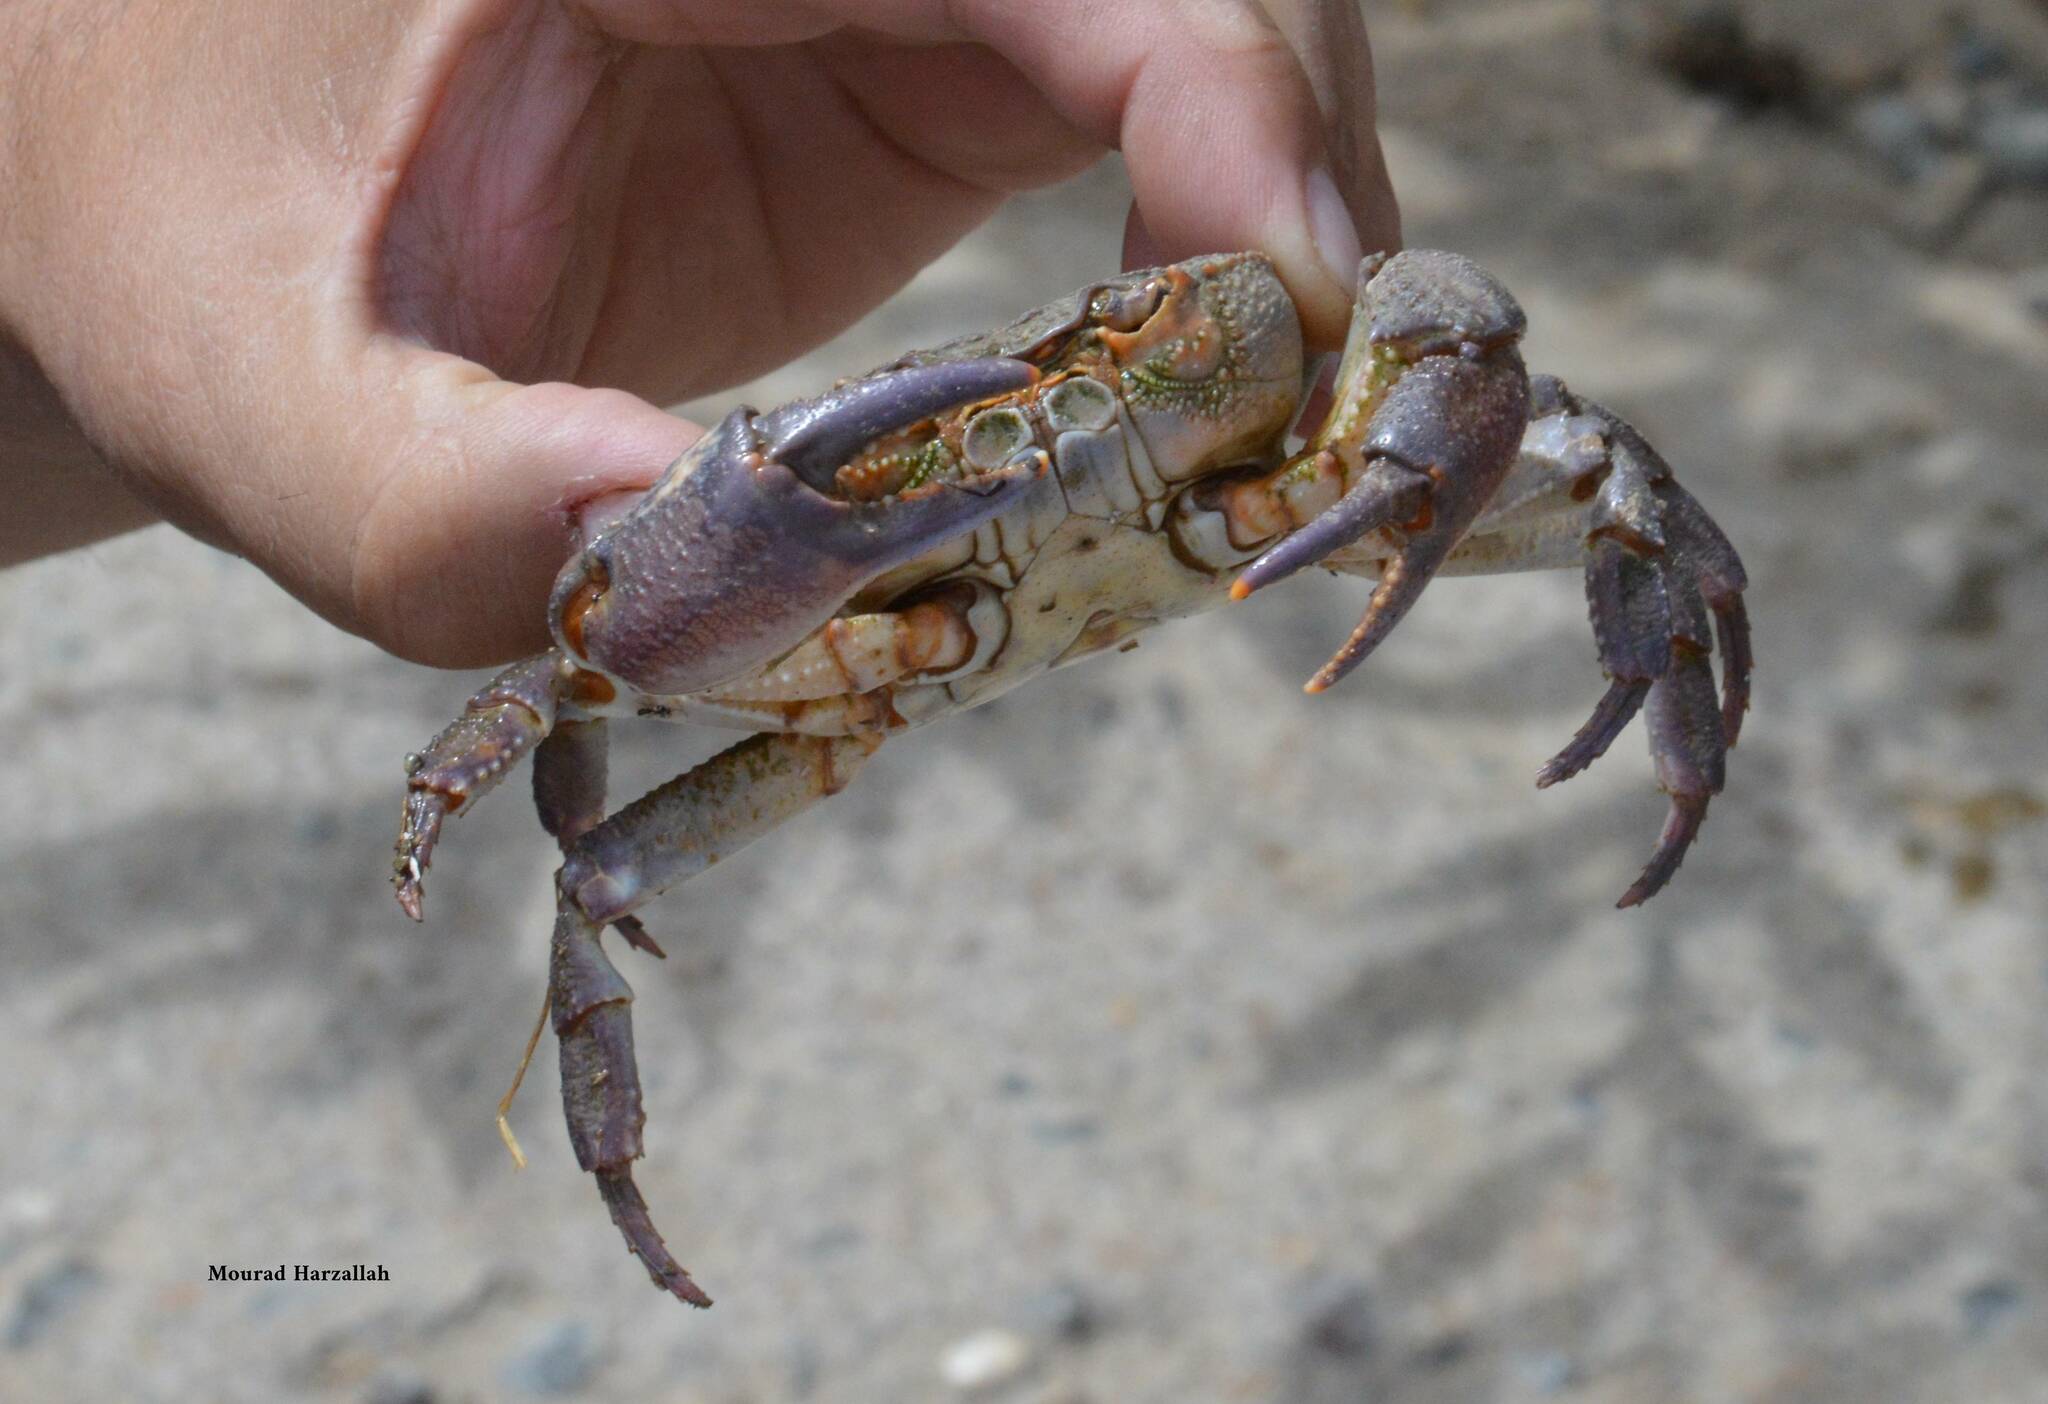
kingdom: Animalia
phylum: Arthropoda
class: Malacostraca
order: Decapoda
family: Potamidae
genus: Potamon
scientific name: Potamon algeriense
